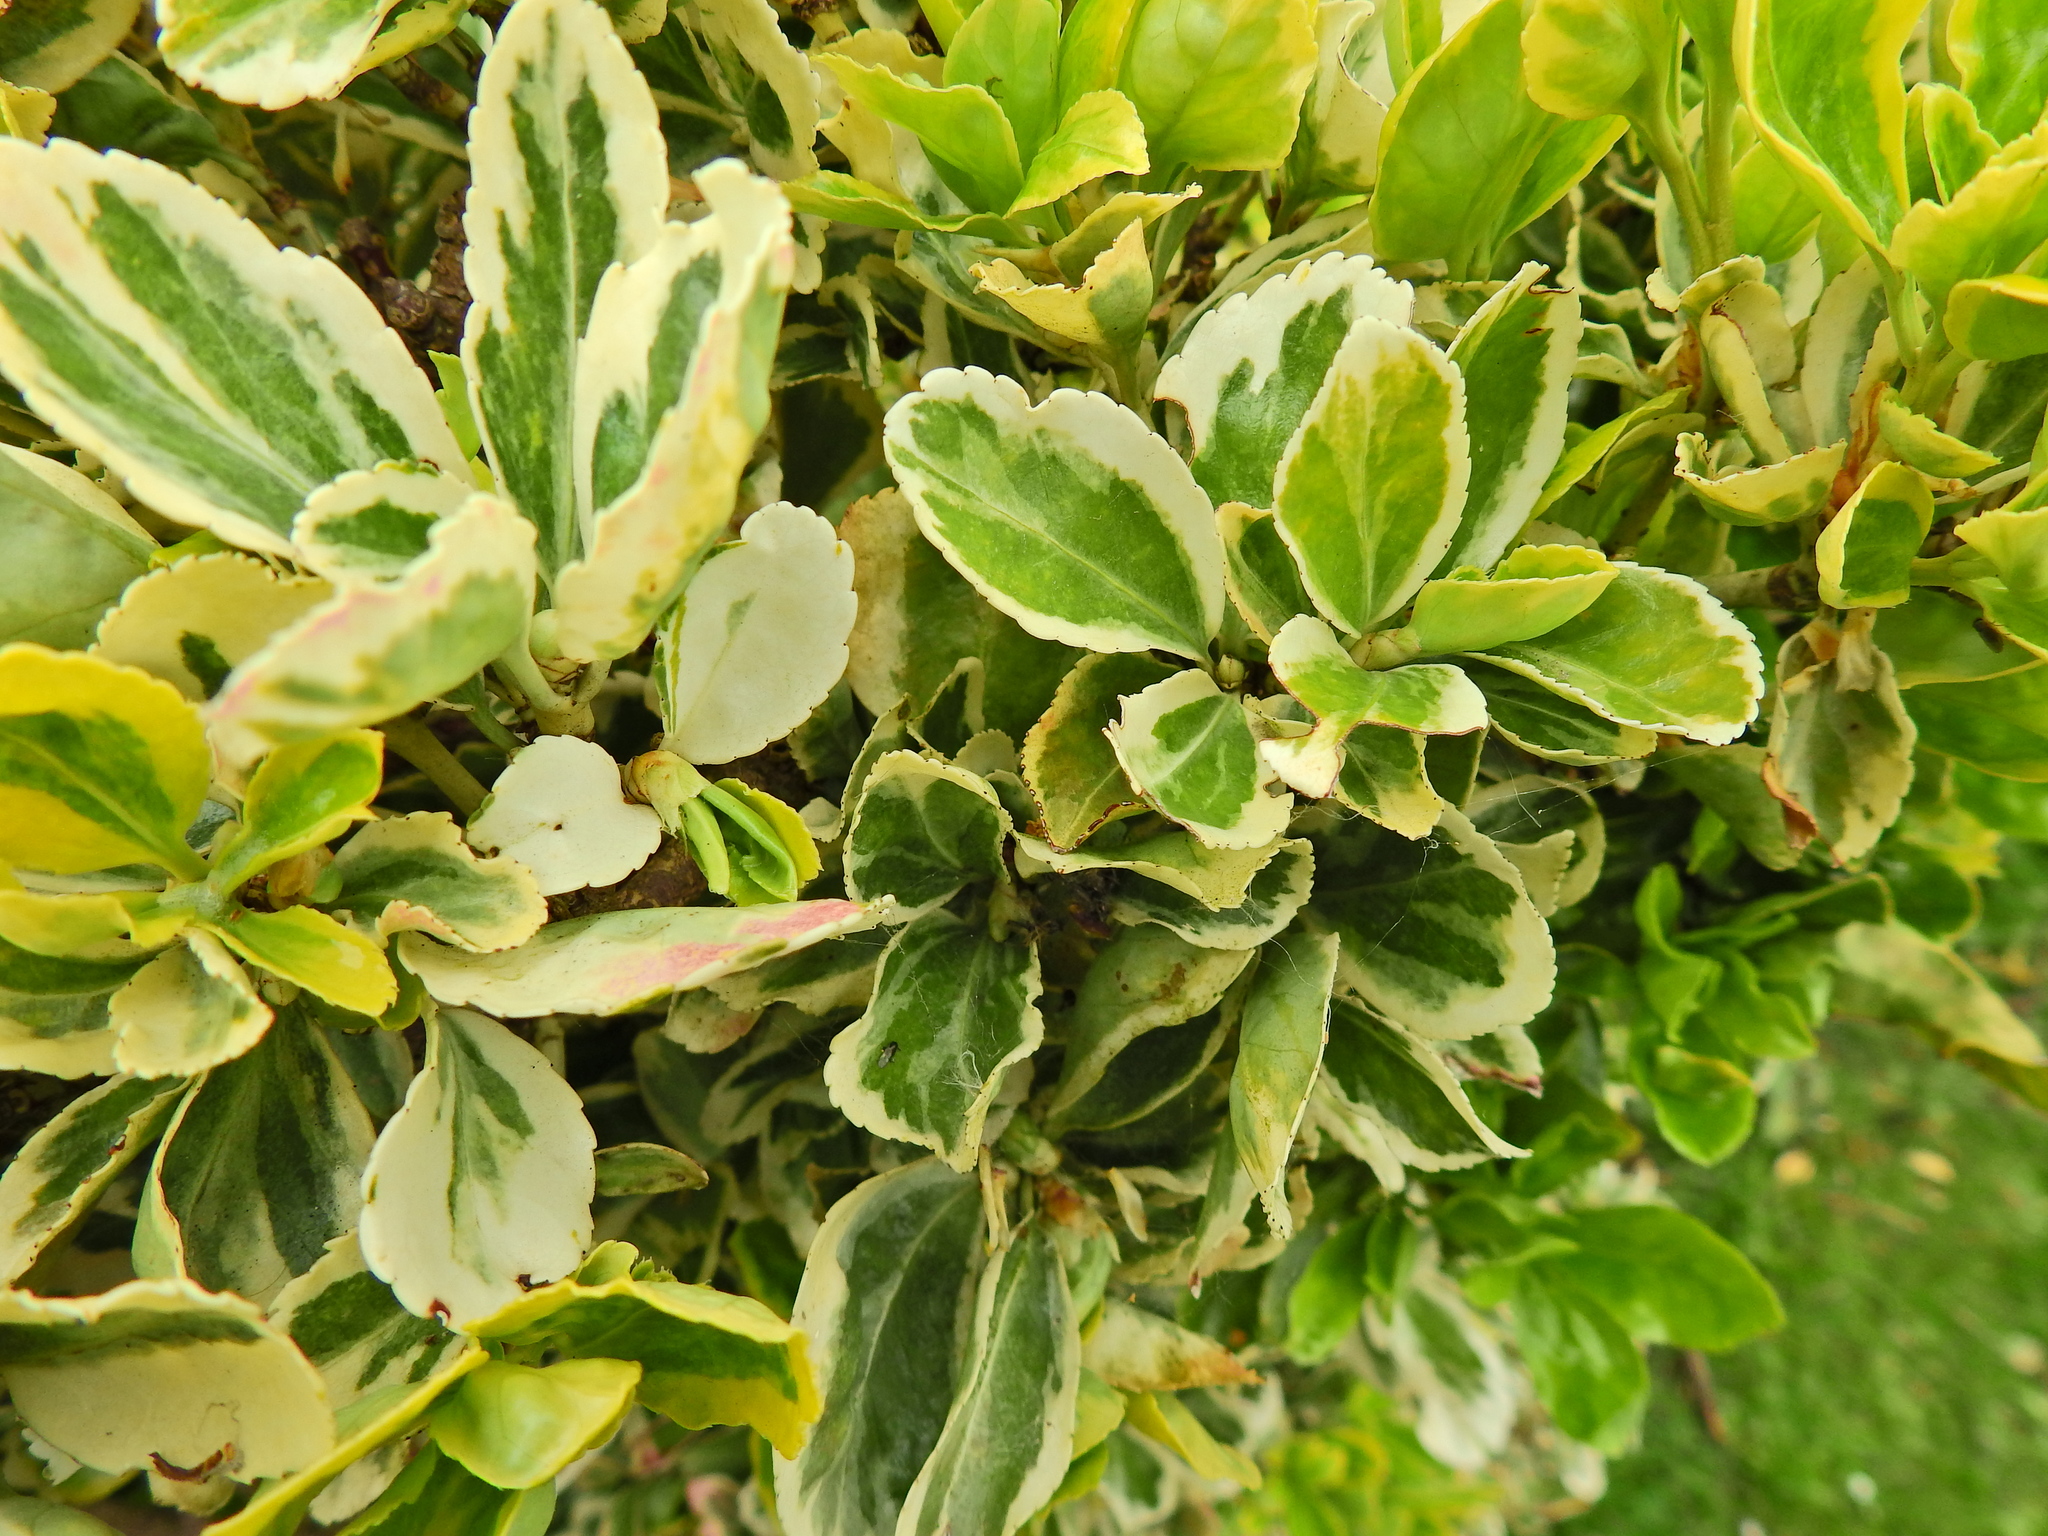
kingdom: Plantae
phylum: Tracheophyta
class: Magnoliopsida
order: Celastrales
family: Celastraceae
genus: Euonymus
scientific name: Euonymus japonicus
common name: Japanese spindletree
